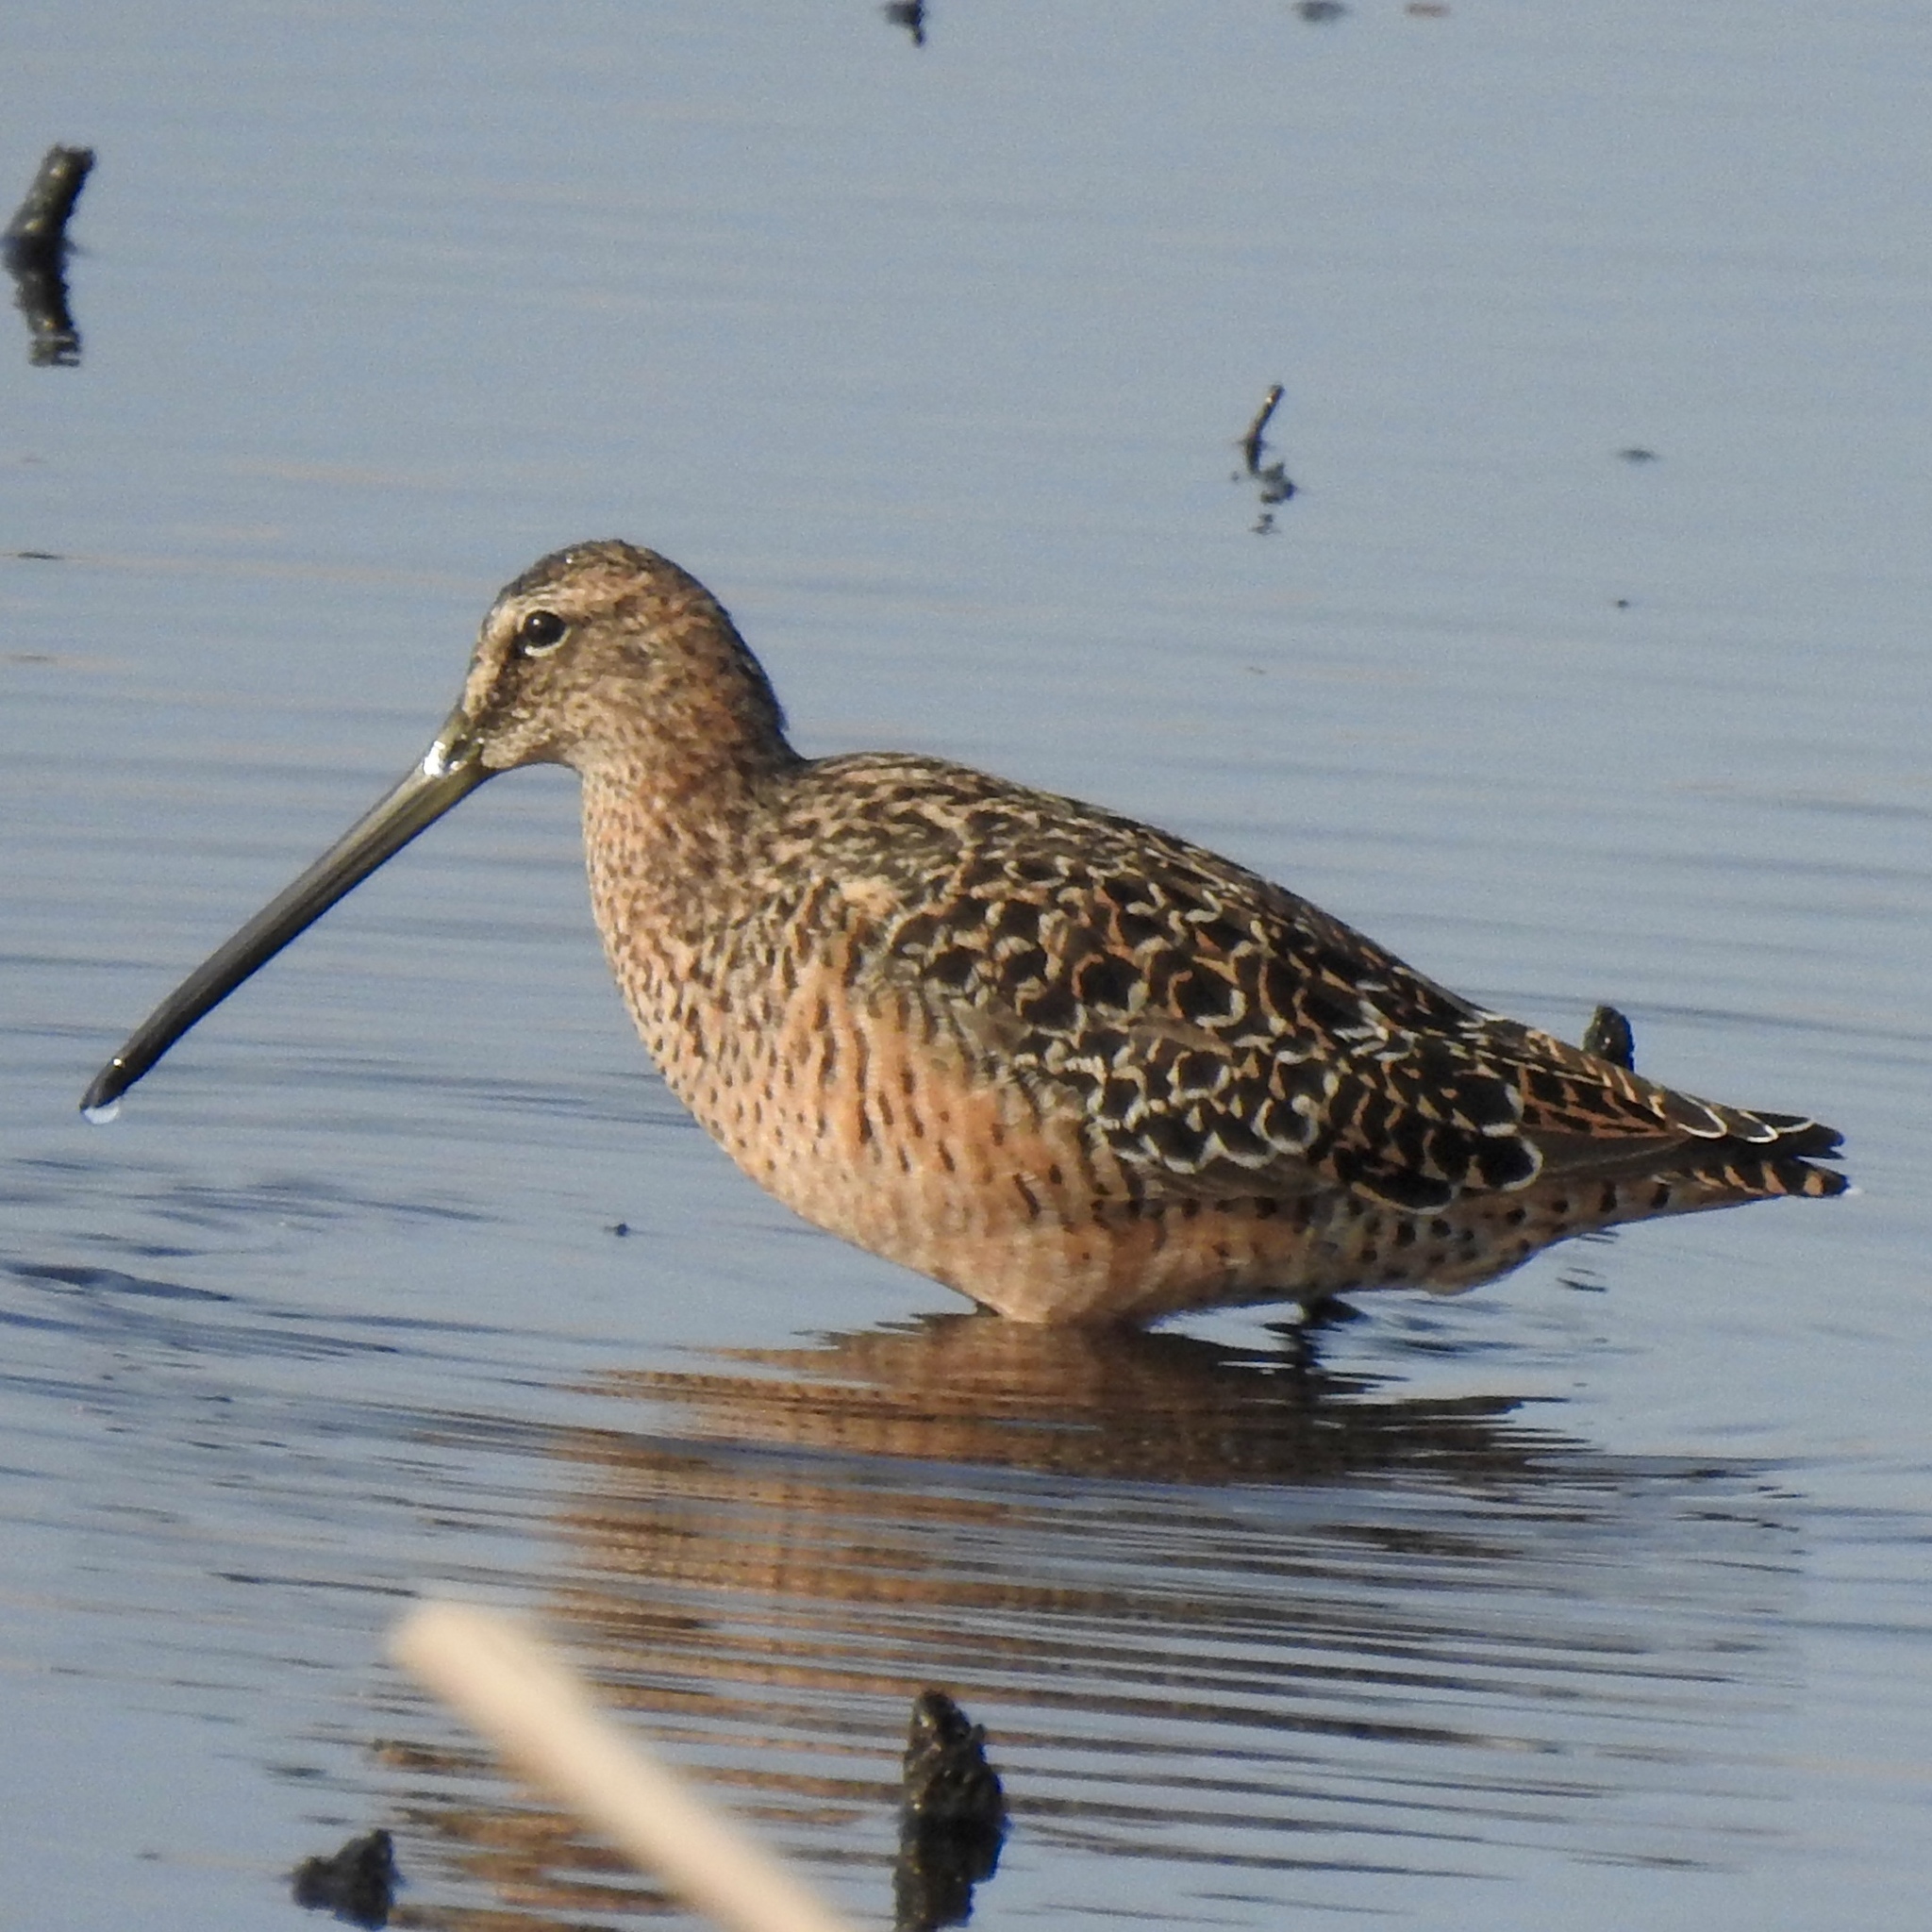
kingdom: Animalia
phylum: Chordata
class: Aves
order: Charadriiformes
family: Scolopacidae
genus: Limnodromus
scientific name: Limnodromus scolopaceus
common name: Long-billed dowitcher
